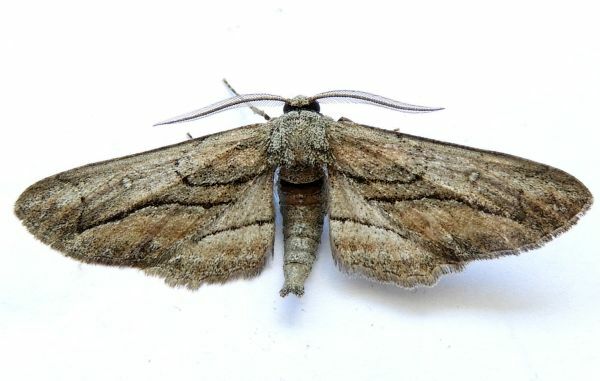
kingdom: Animalia
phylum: Arthropoda
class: Insecta
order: Lepidoptera
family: Geometridae
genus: Holochroa
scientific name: Holochroa dissociarius
